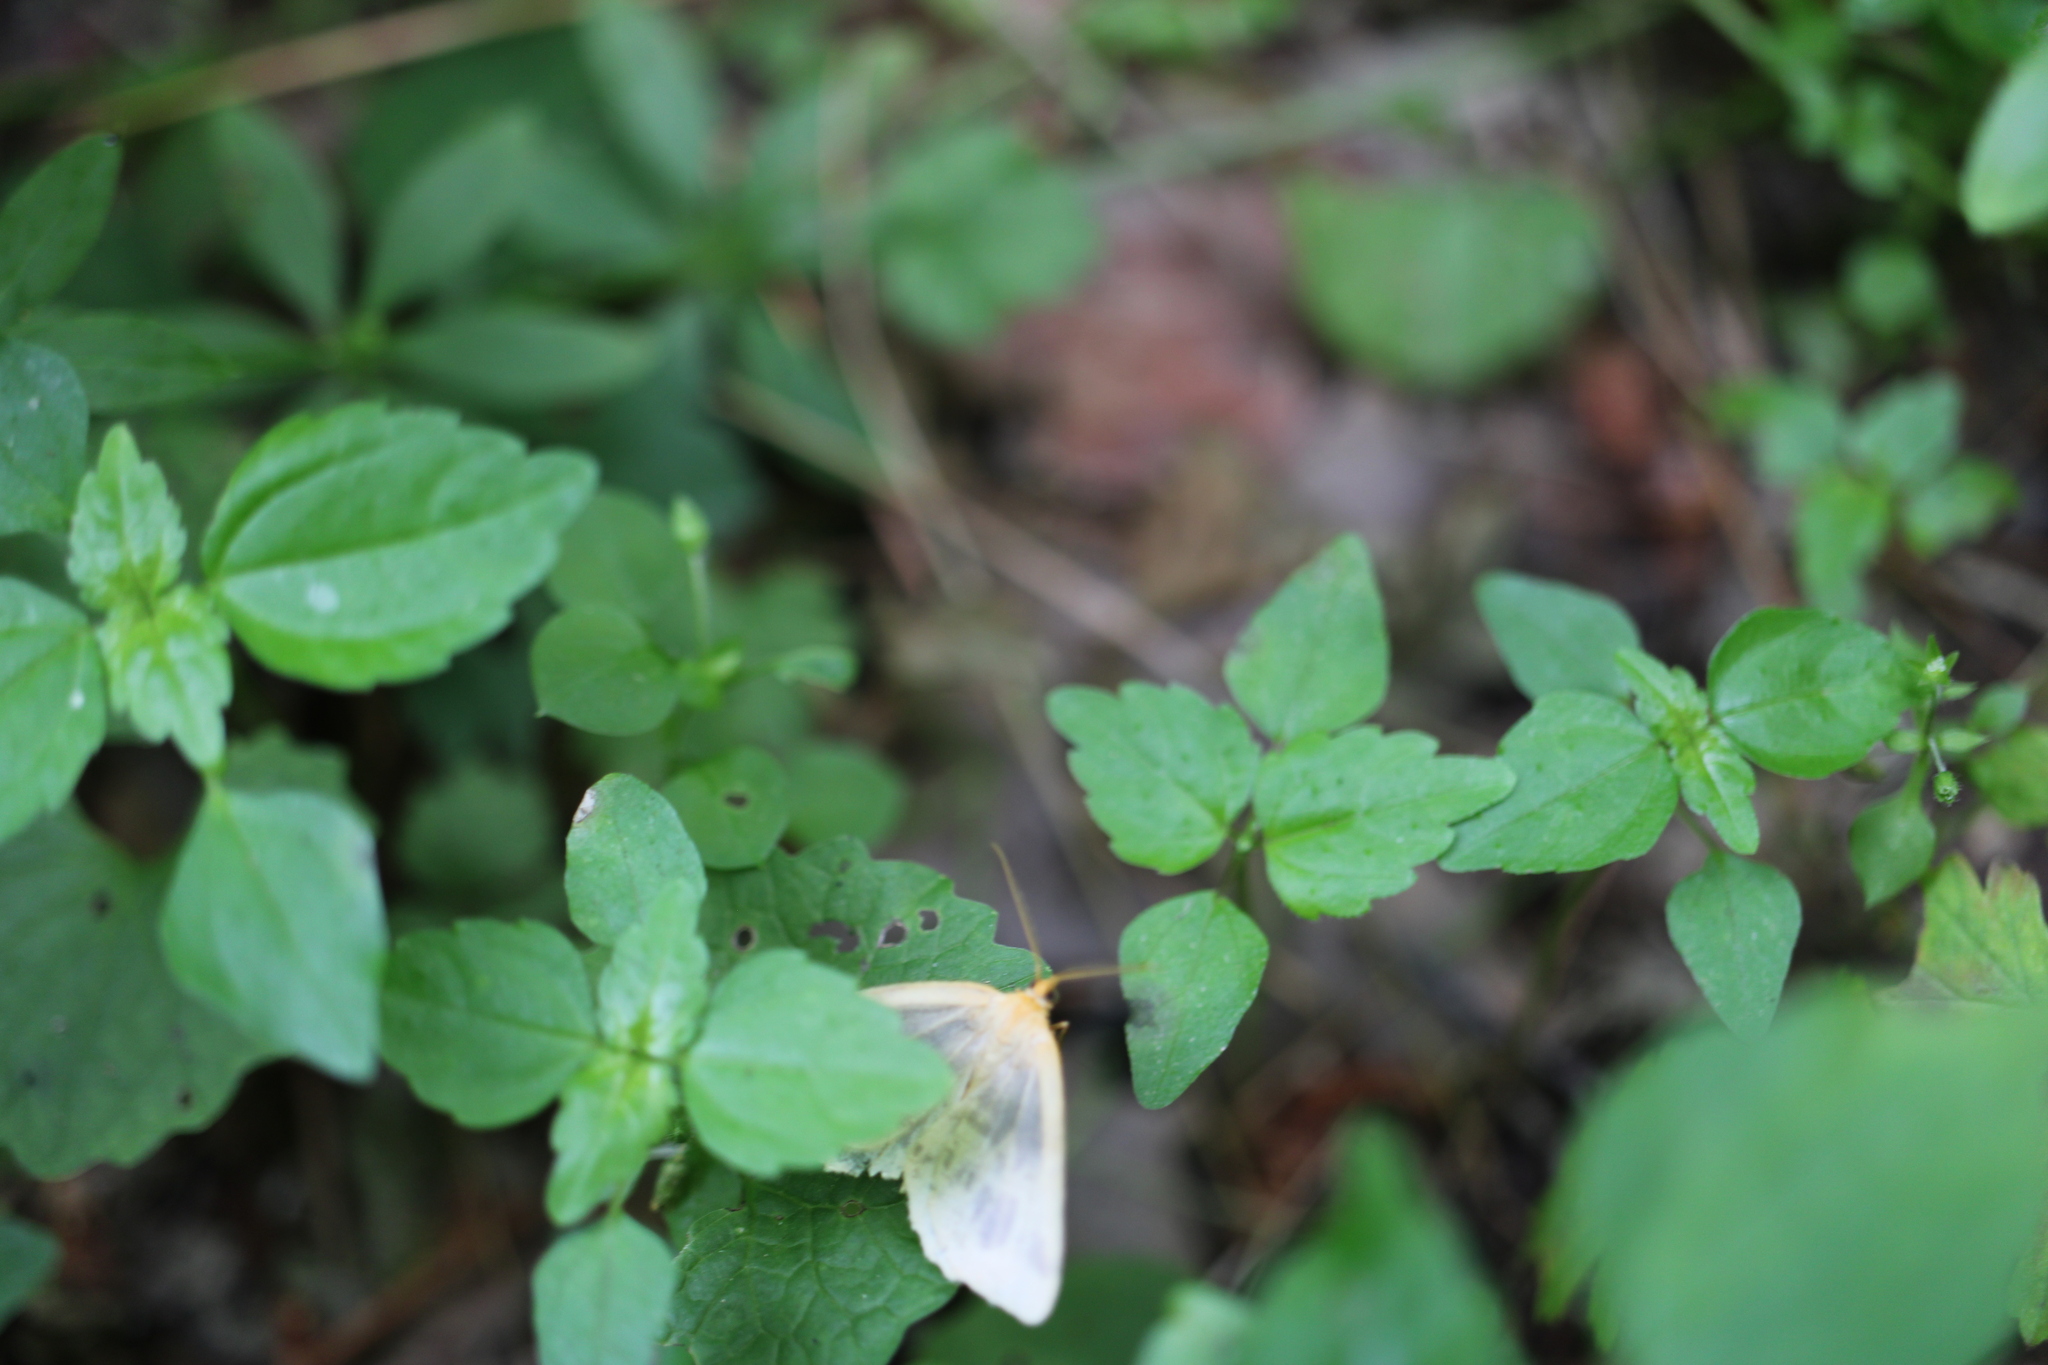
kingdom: Animalia
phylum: Arthropoda
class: Insecta
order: Lepidoptera
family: Geometridae
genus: Macaria
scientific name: Macaria ribearia
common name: Currant spanworm moth
